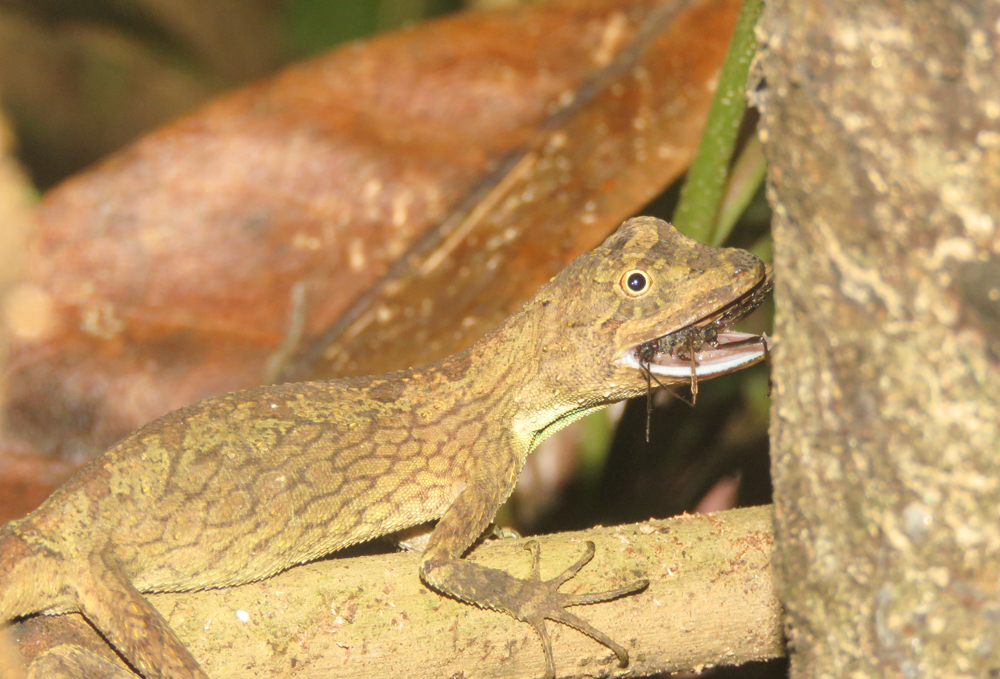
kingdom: Animalia
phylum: Chordata
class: Squamata
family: Agamidae
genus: Ptyctolaemus
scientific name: Ptyctolaemus gularis
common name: Green fan-throated lizard
